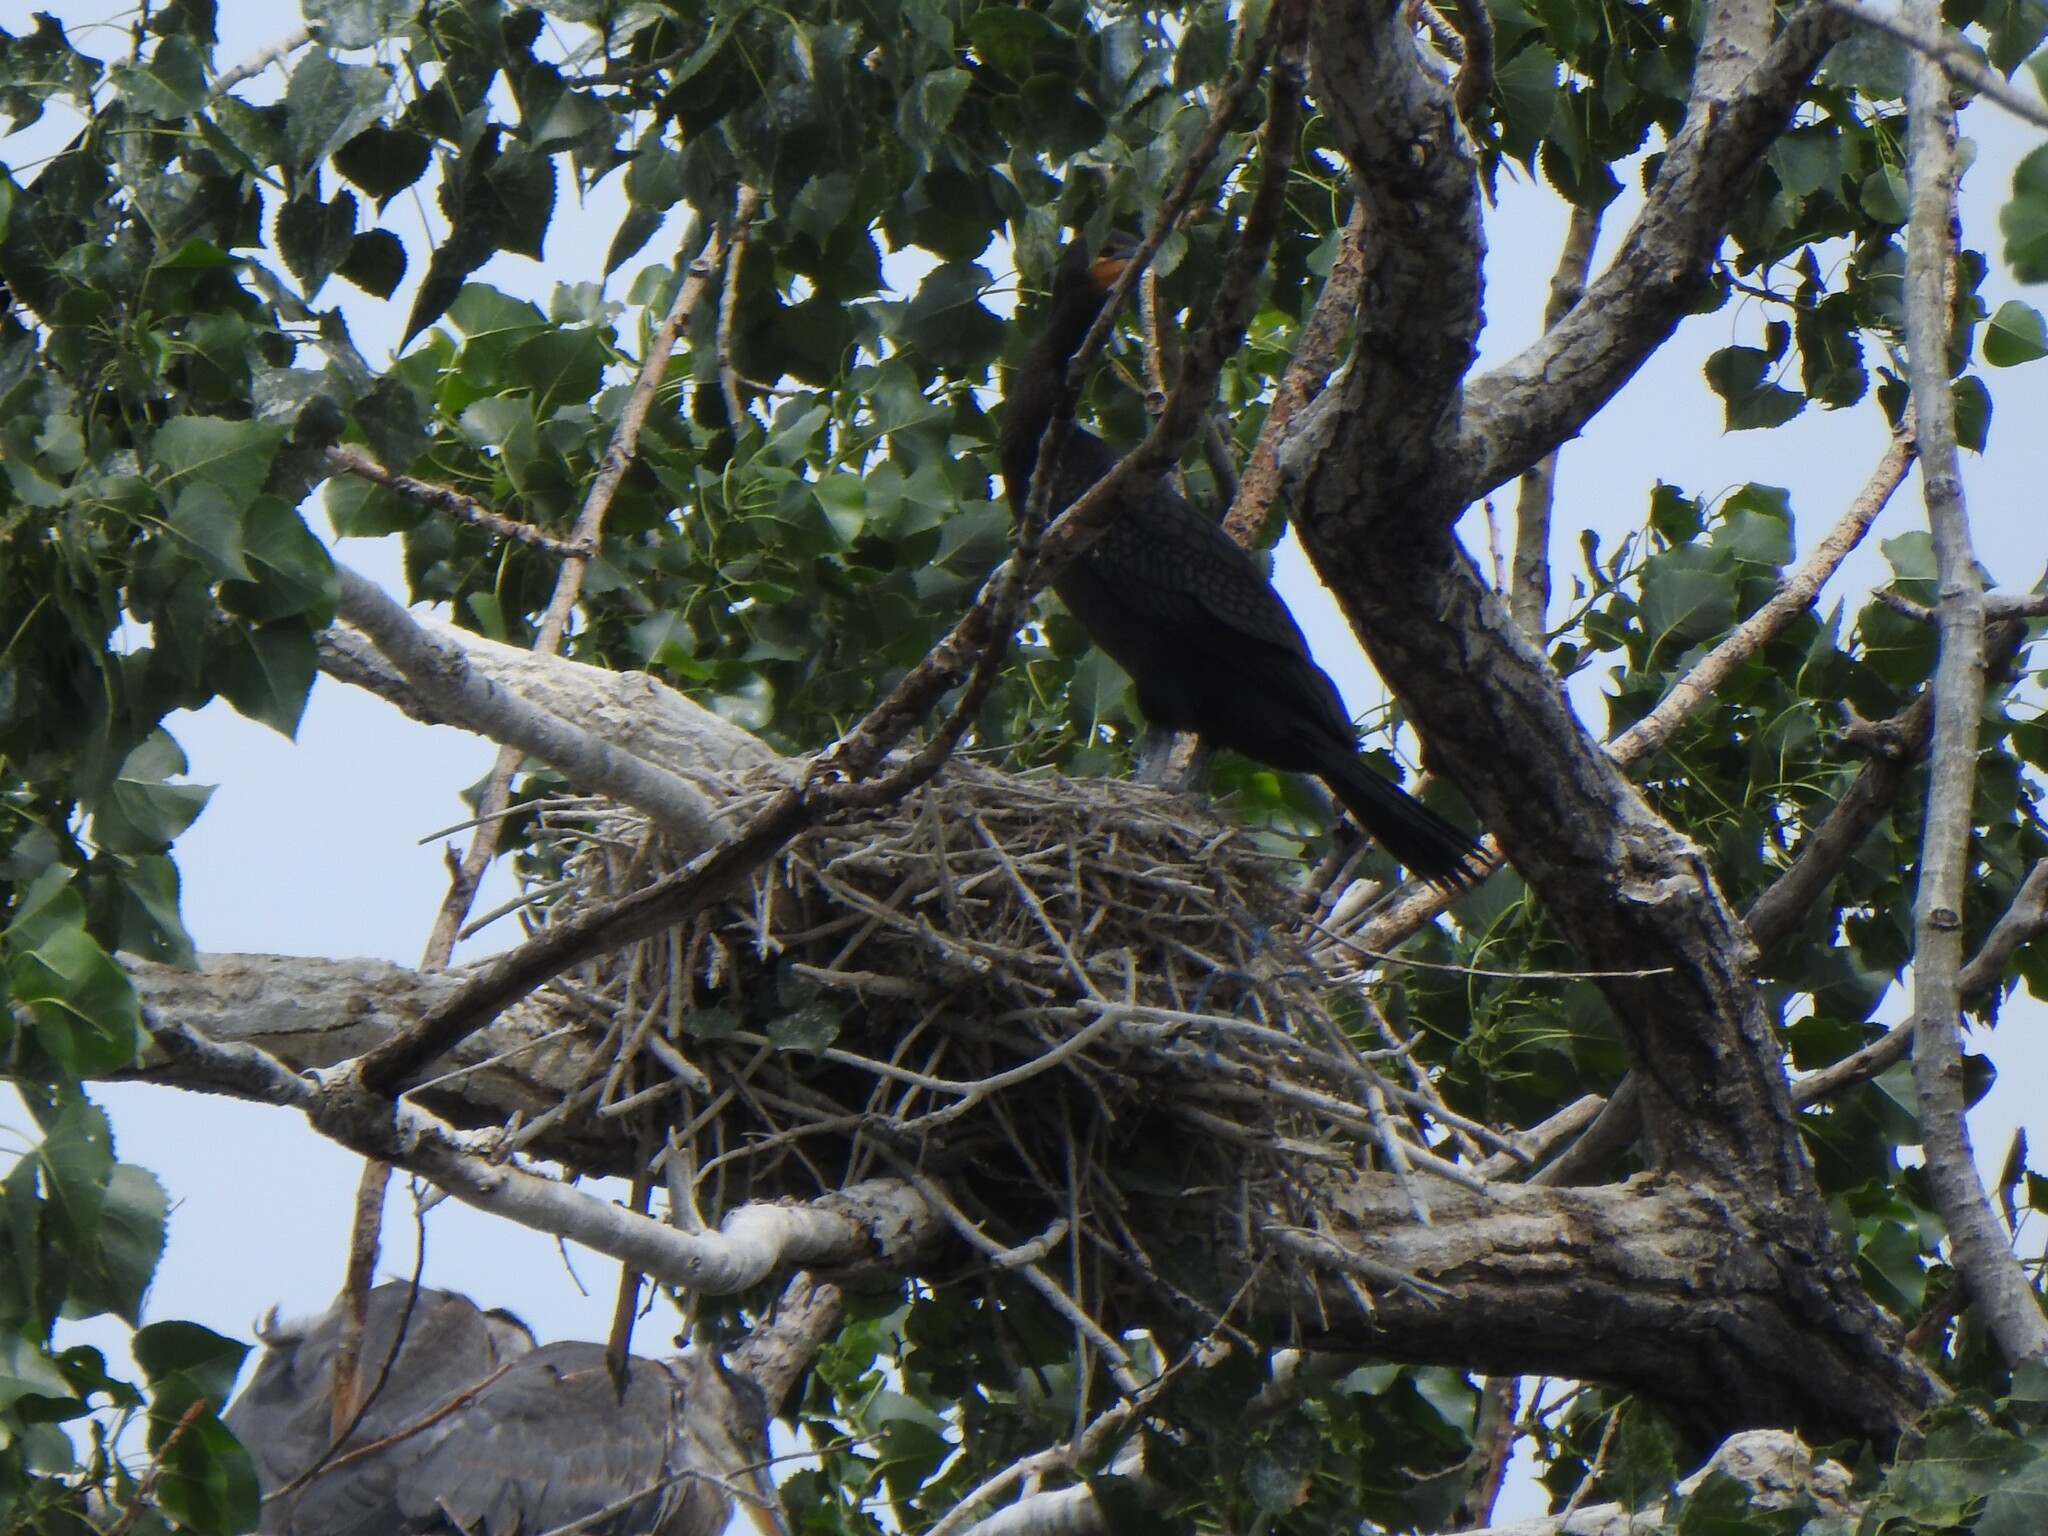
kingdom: Animalia
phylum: Chordata
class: Aves
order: Suliformes
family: Phalacrocoracidae
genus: Phalacrocorax
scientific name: Phalacrocorax auritus
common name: Double-crested cormorant
